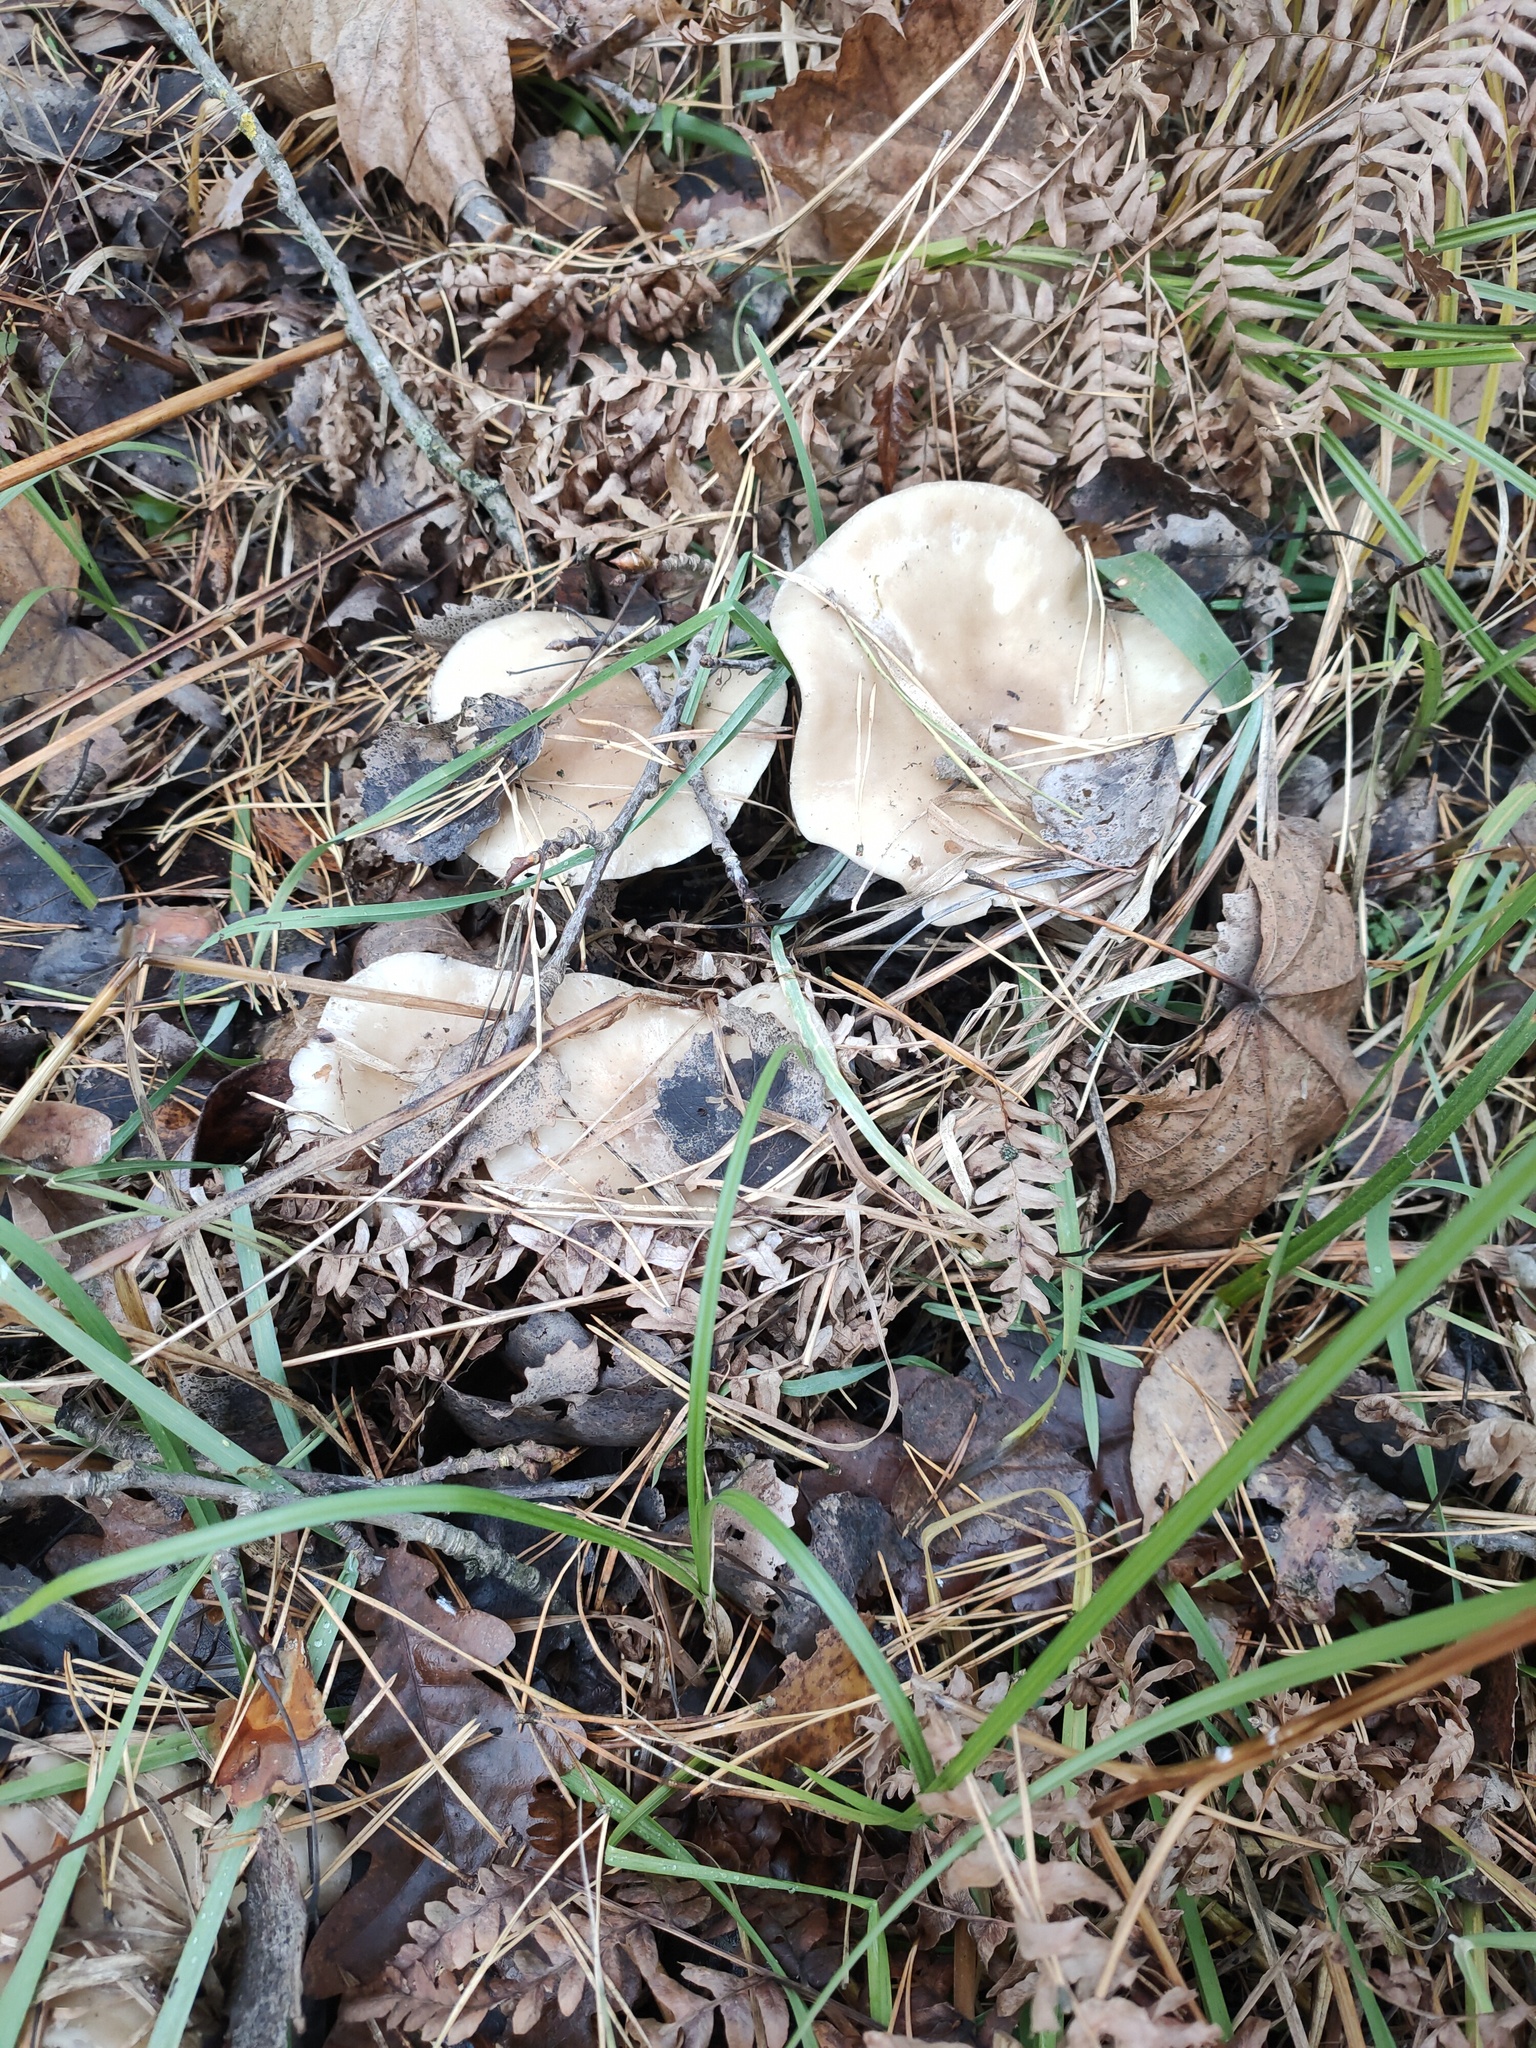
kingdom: Fungi
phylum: Basidiomycota
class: Agaricomycetes
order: Agaricales
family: Hygrophoraceae
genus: Ampulloclitocybe
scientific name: Ampulloclitocybe clavipes
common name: Club foot
